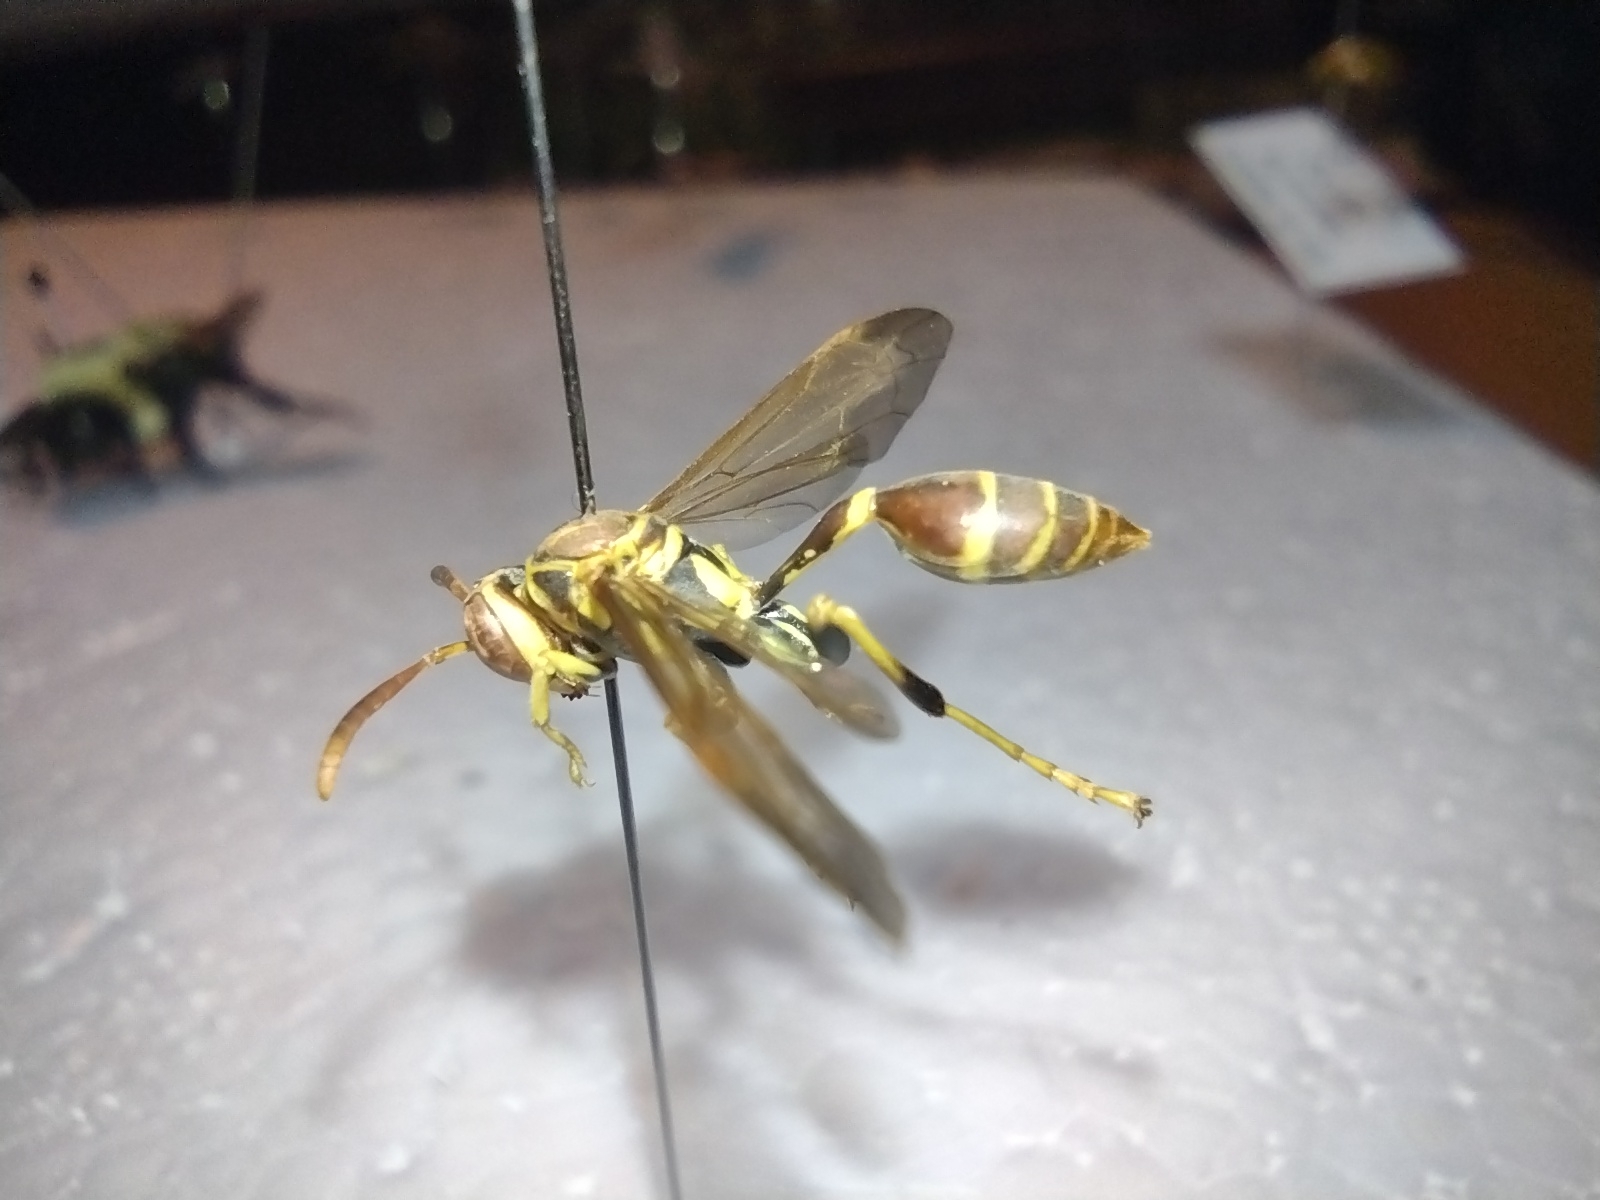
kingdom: Animalia
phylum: Arthropoda
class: Insecta
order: Hymenoptera
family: Vespidae
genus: Mischocyttarus
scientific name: Mischocyttarus mexicanus
